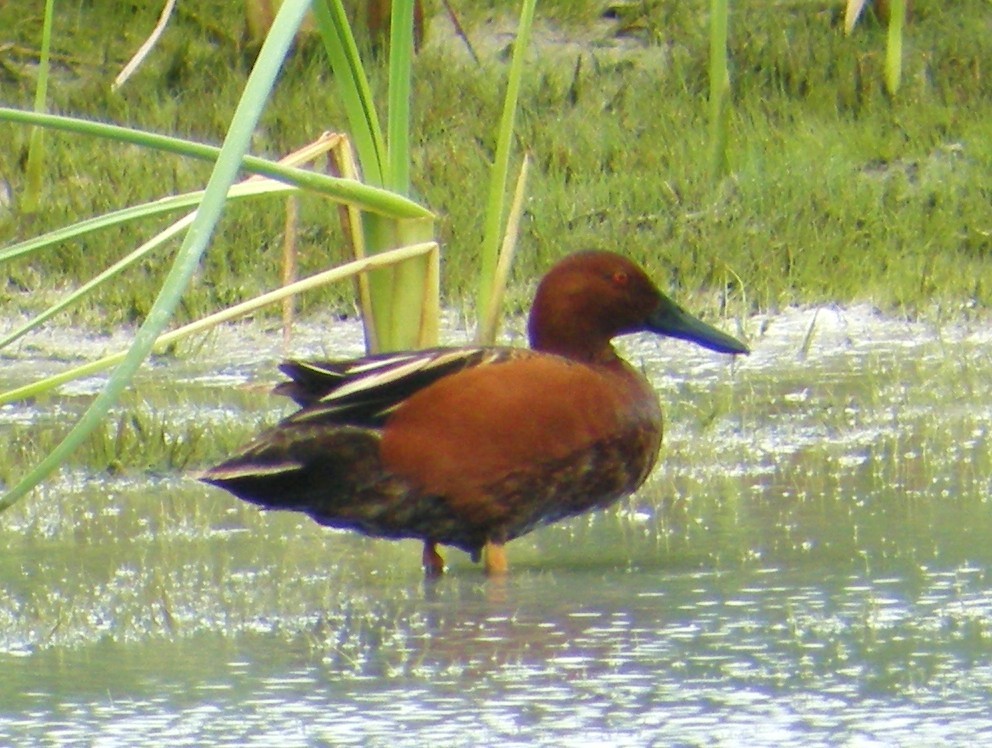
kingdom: Animalia
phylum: Chordata
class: Aves
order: Anseriformes
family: Anatidae
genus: Spatula
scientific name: Spatula cyanoptera
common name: Cinnamon teal
